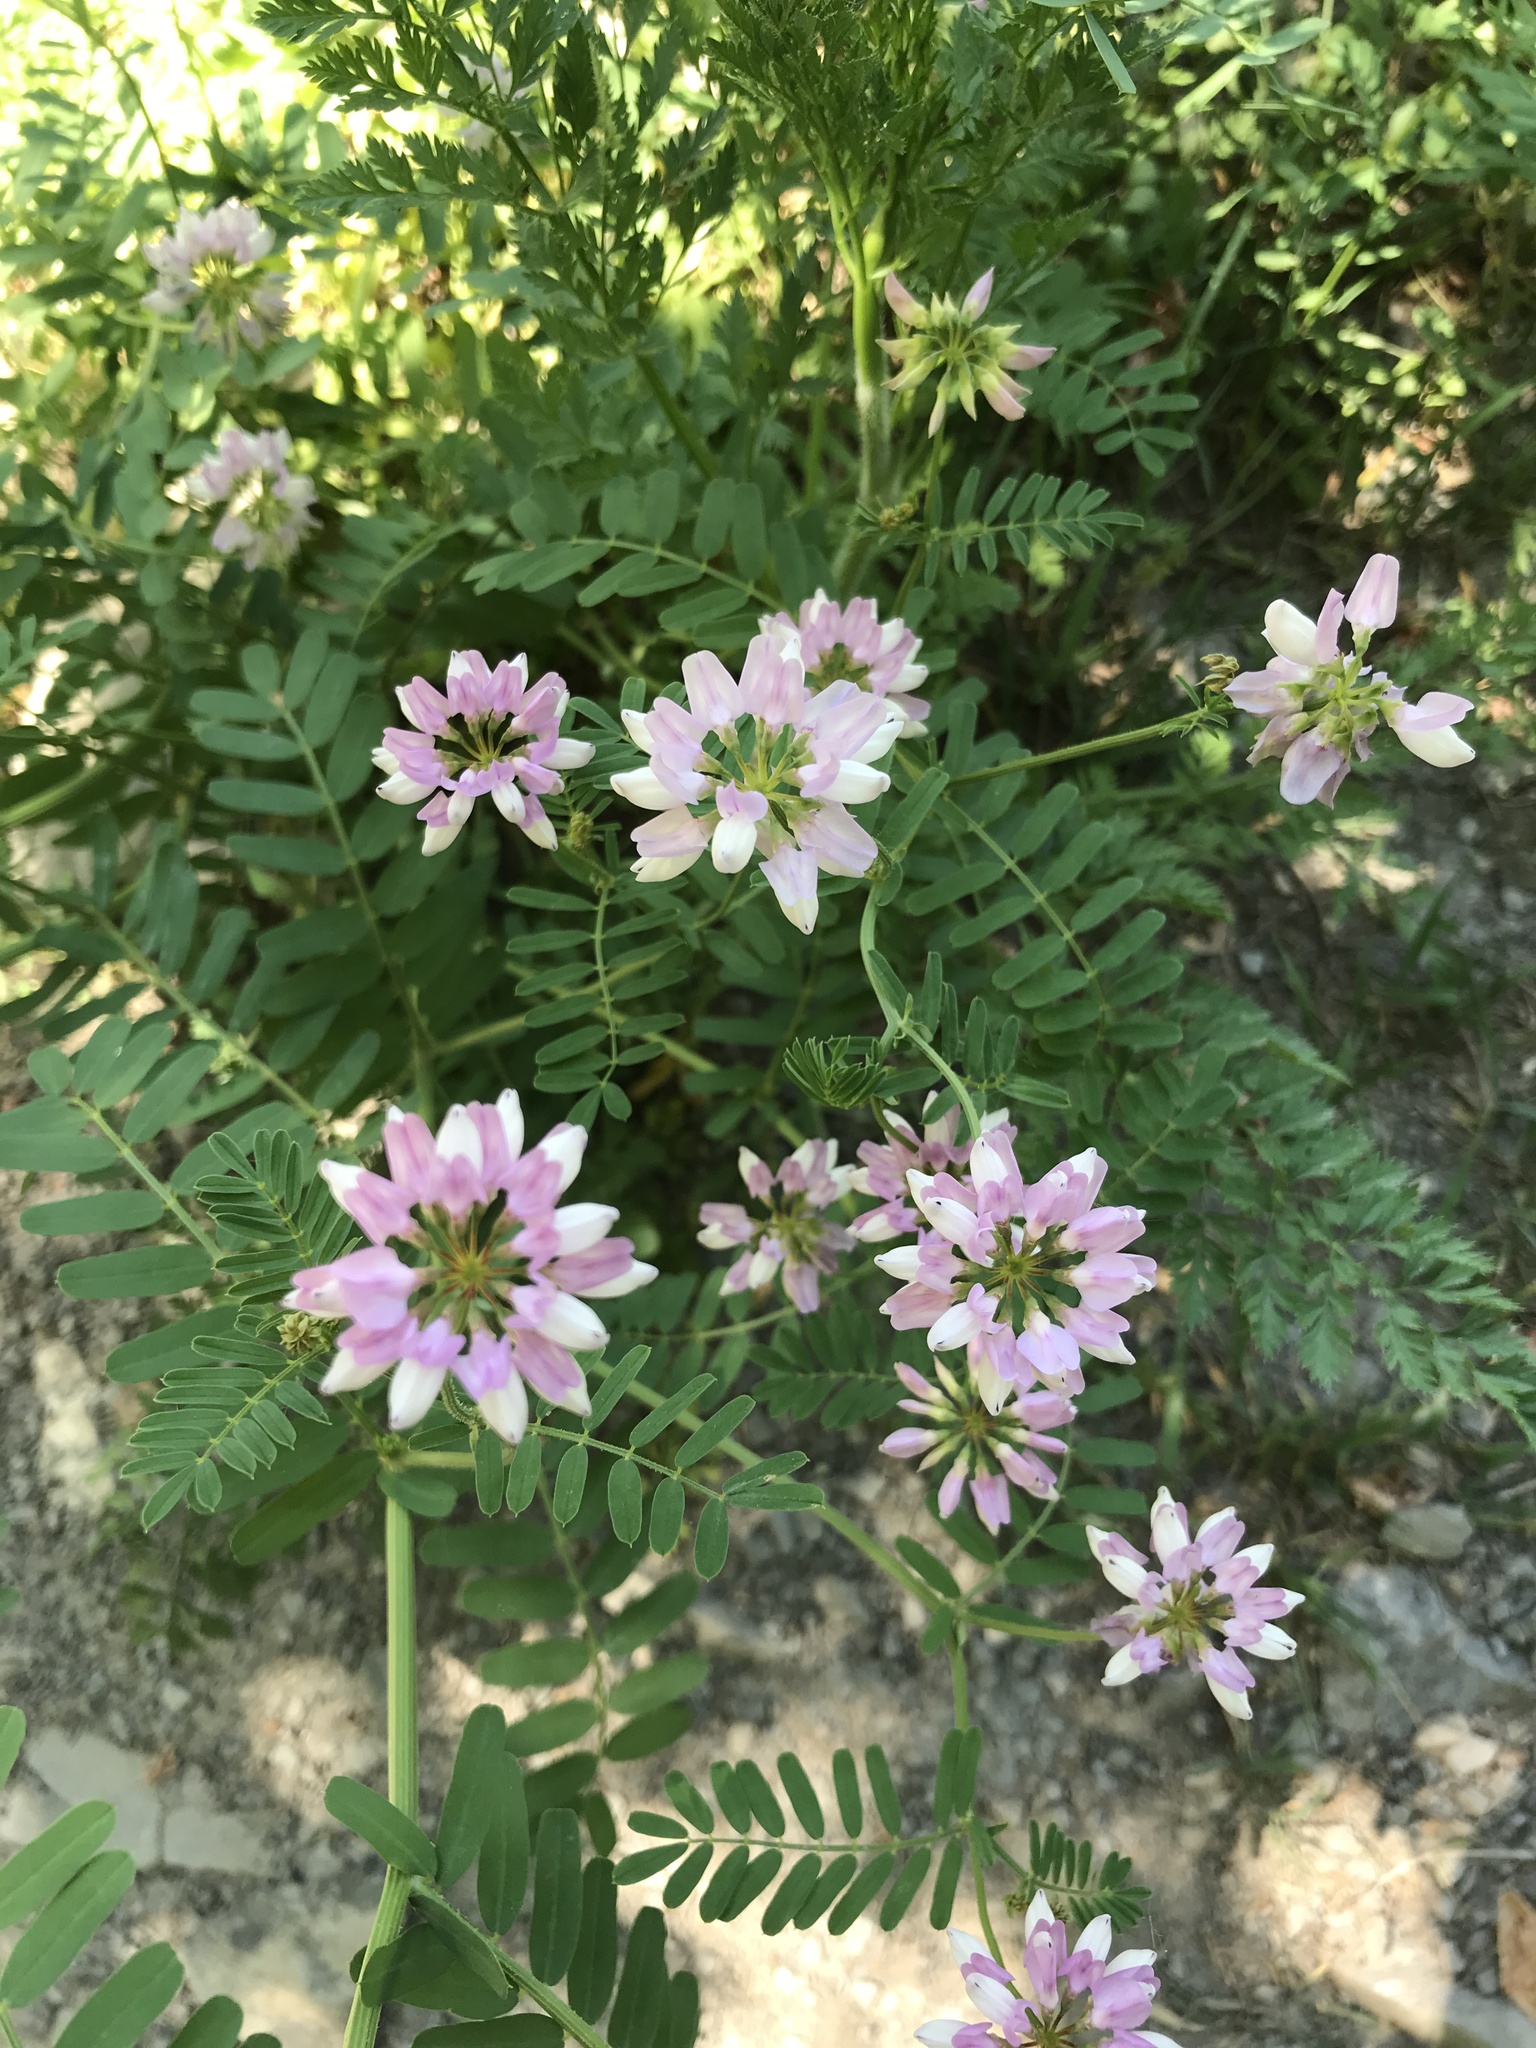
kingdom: Plantae
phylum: Tracheophyta
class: Magnoliopsida
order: Fabales
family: Fabaceae
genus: Coronilla
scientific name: Coronilla varia
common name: Crownvetch
